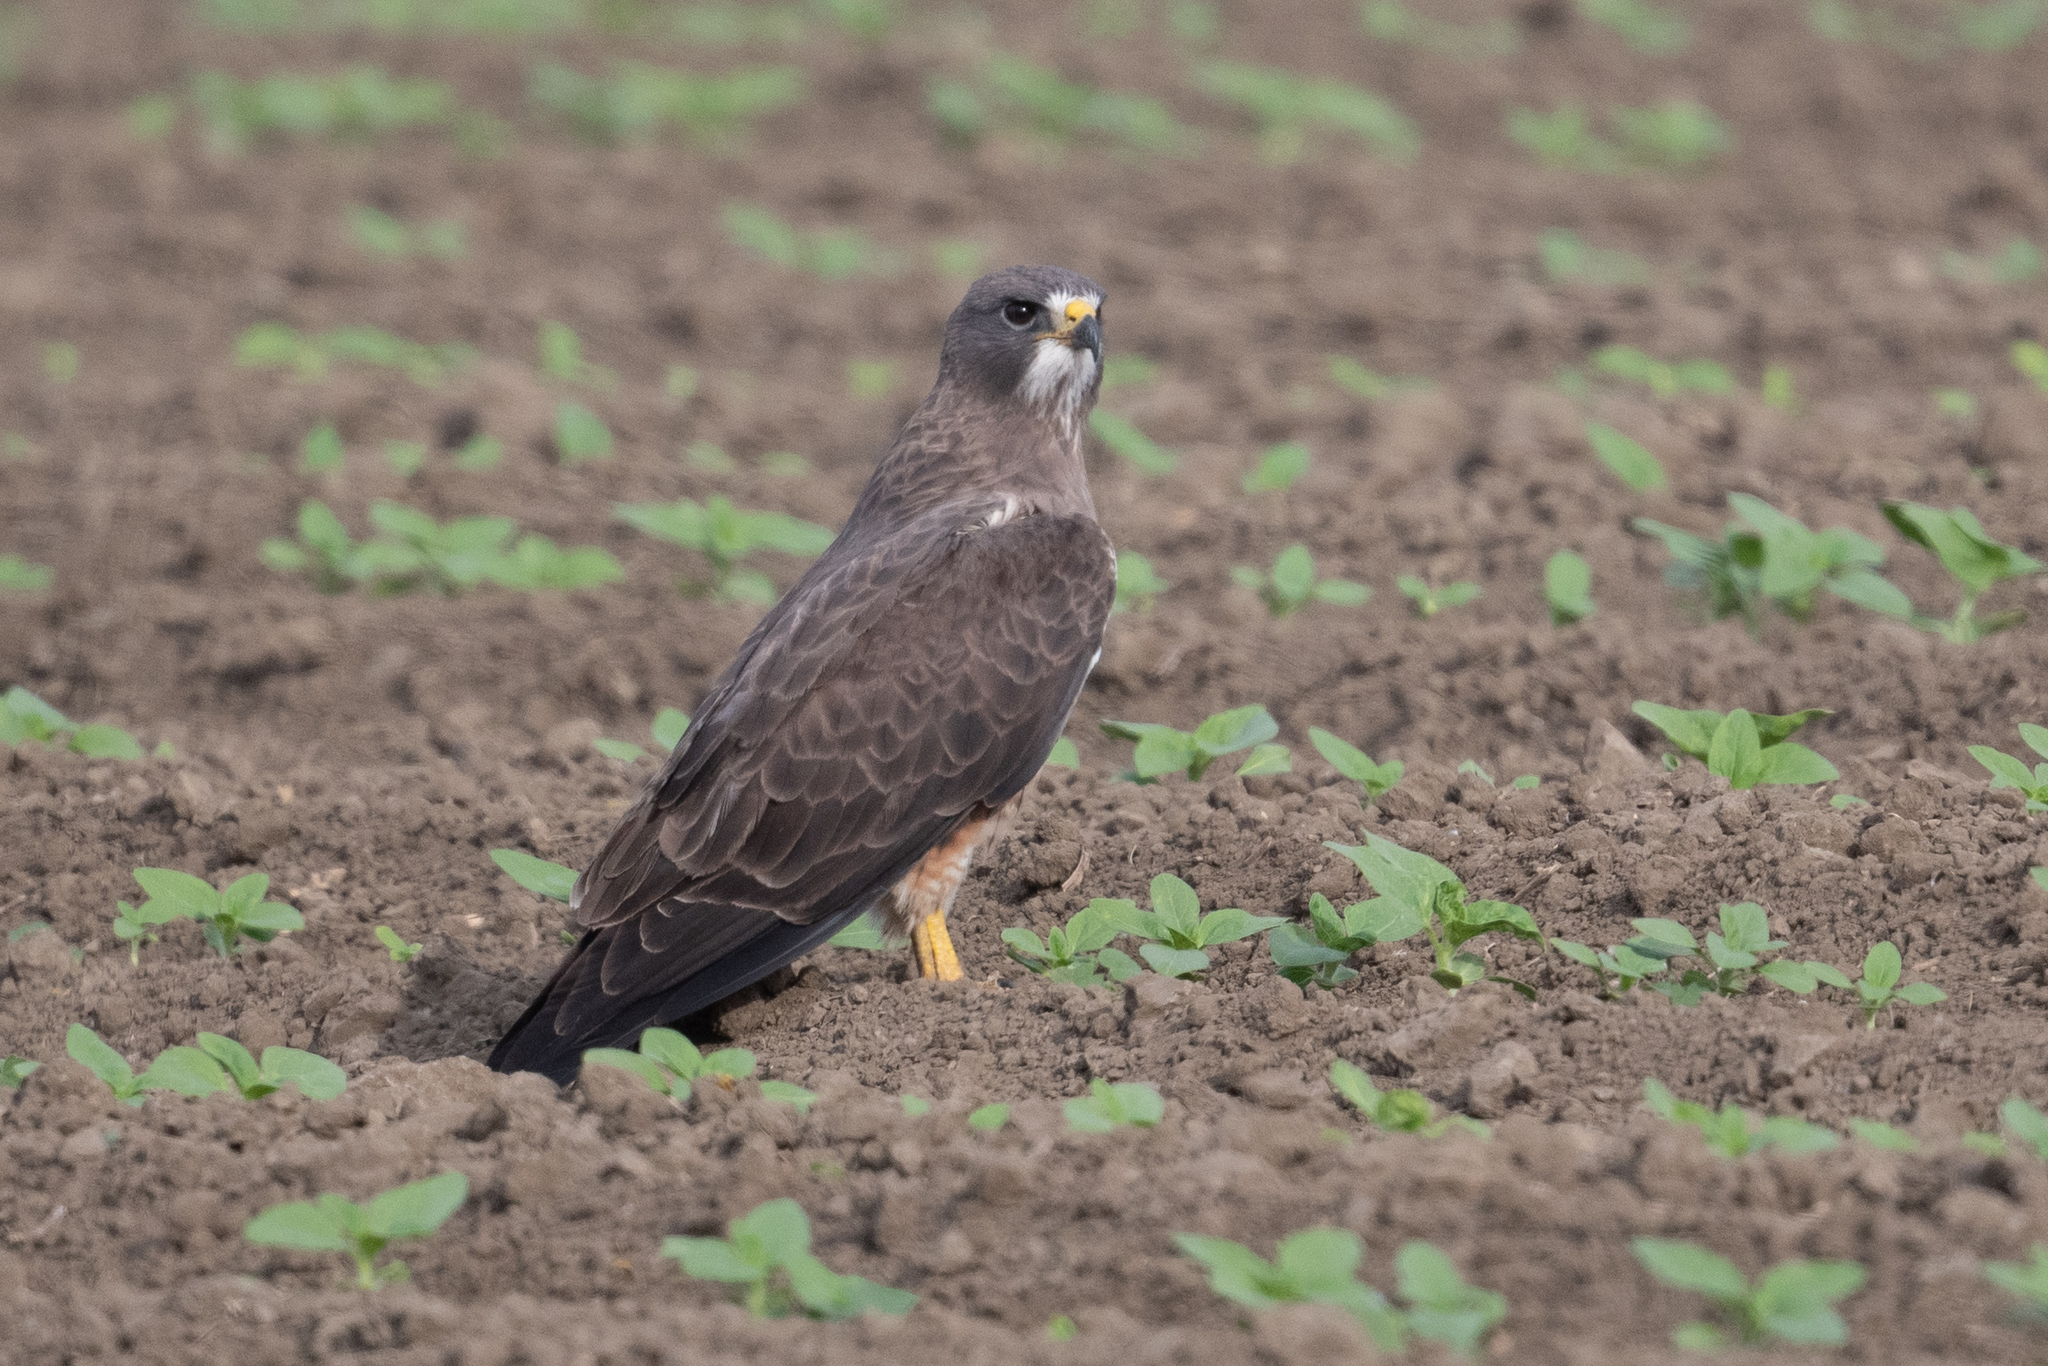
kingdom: Animalia
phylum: Chordata
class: Aves
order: Accipitriformes
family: Accipitridae
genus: Buteo
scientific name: Buteo swainsoni
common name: Swainson's hawk
